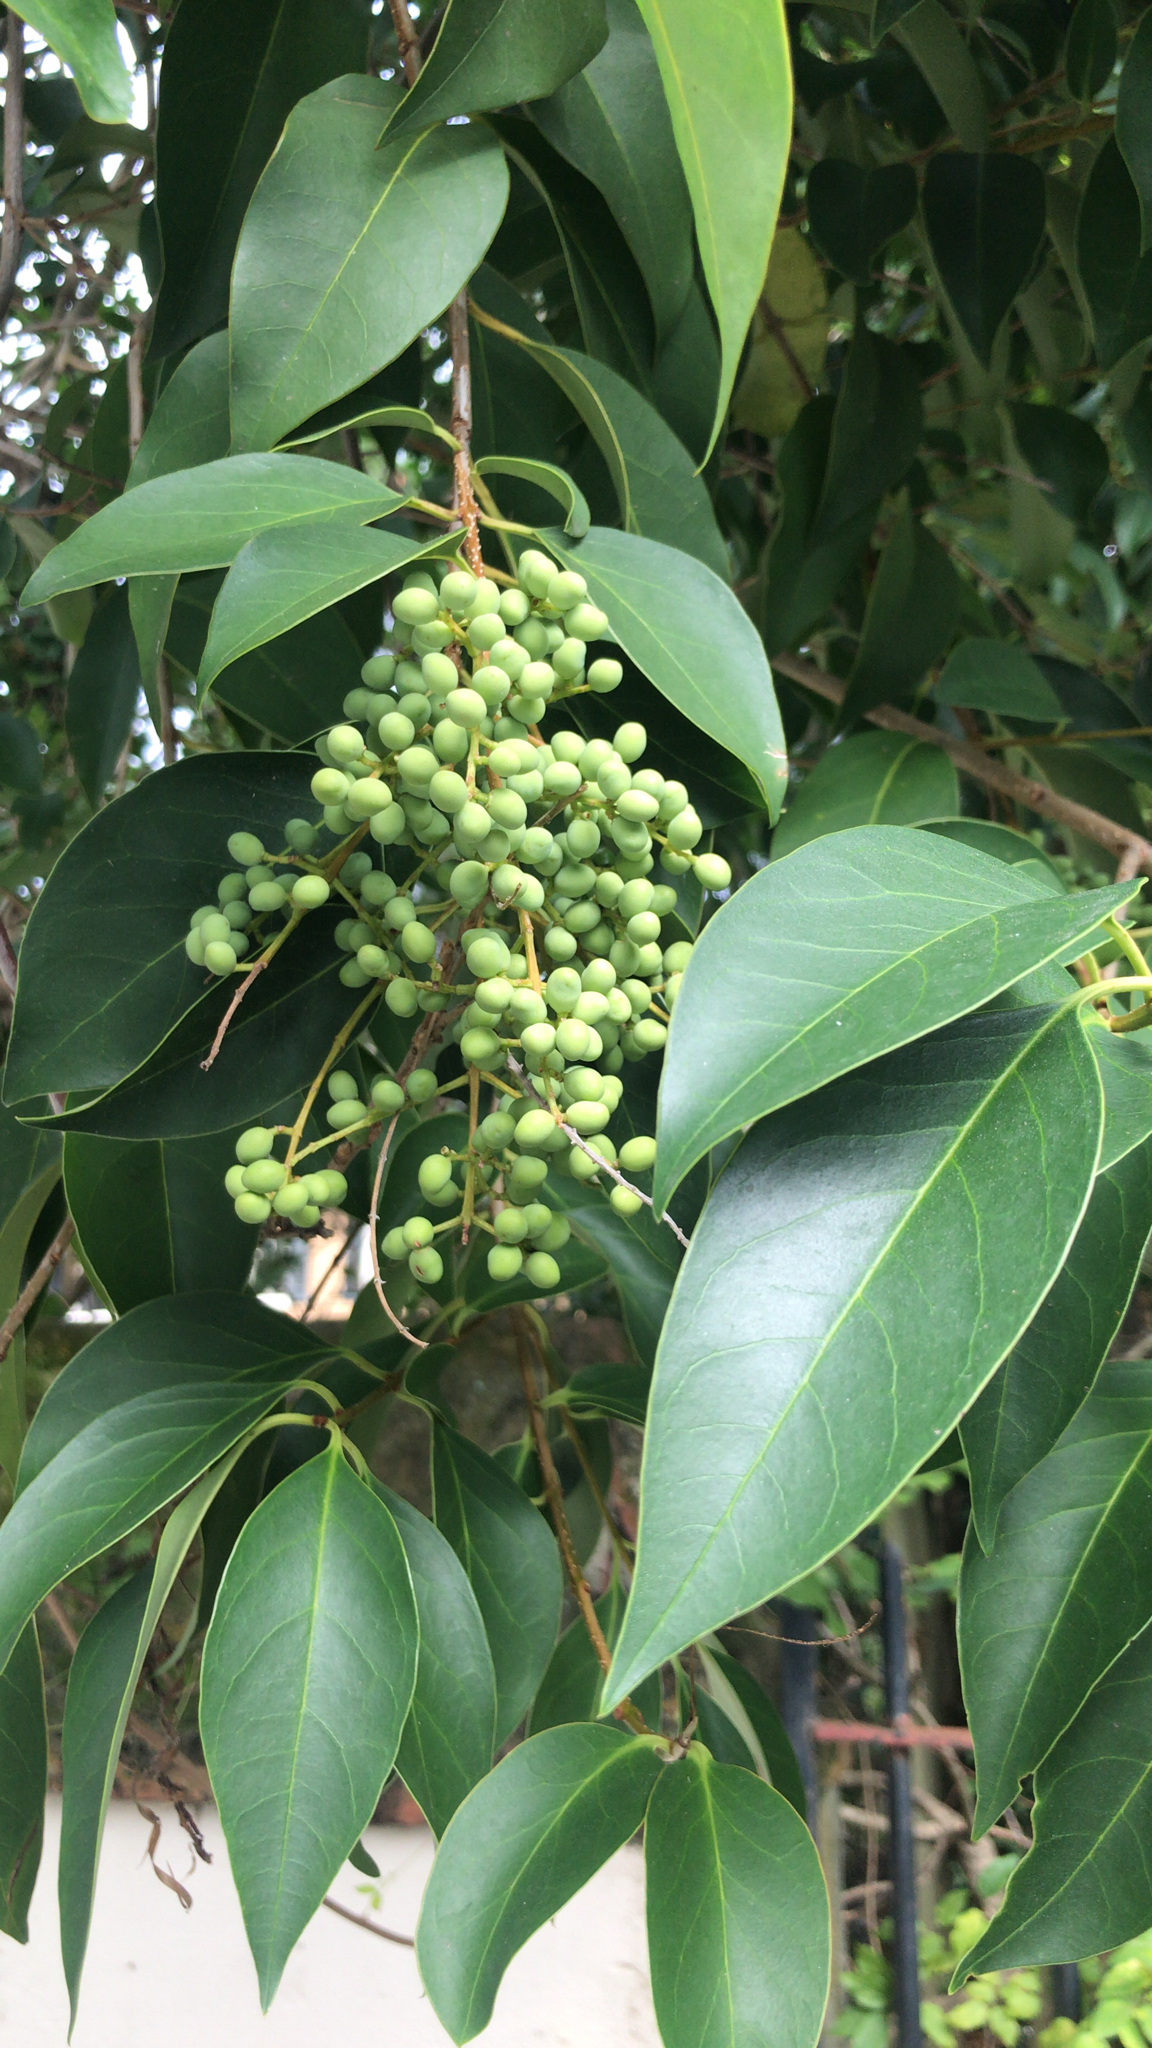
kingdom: Plantae
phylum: Tracheophyta
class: Magnoliopsida
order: Lamiales
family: Oleaceae
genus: Ligustrum
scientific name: Ligustrum lucidum
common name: Glossy privet
